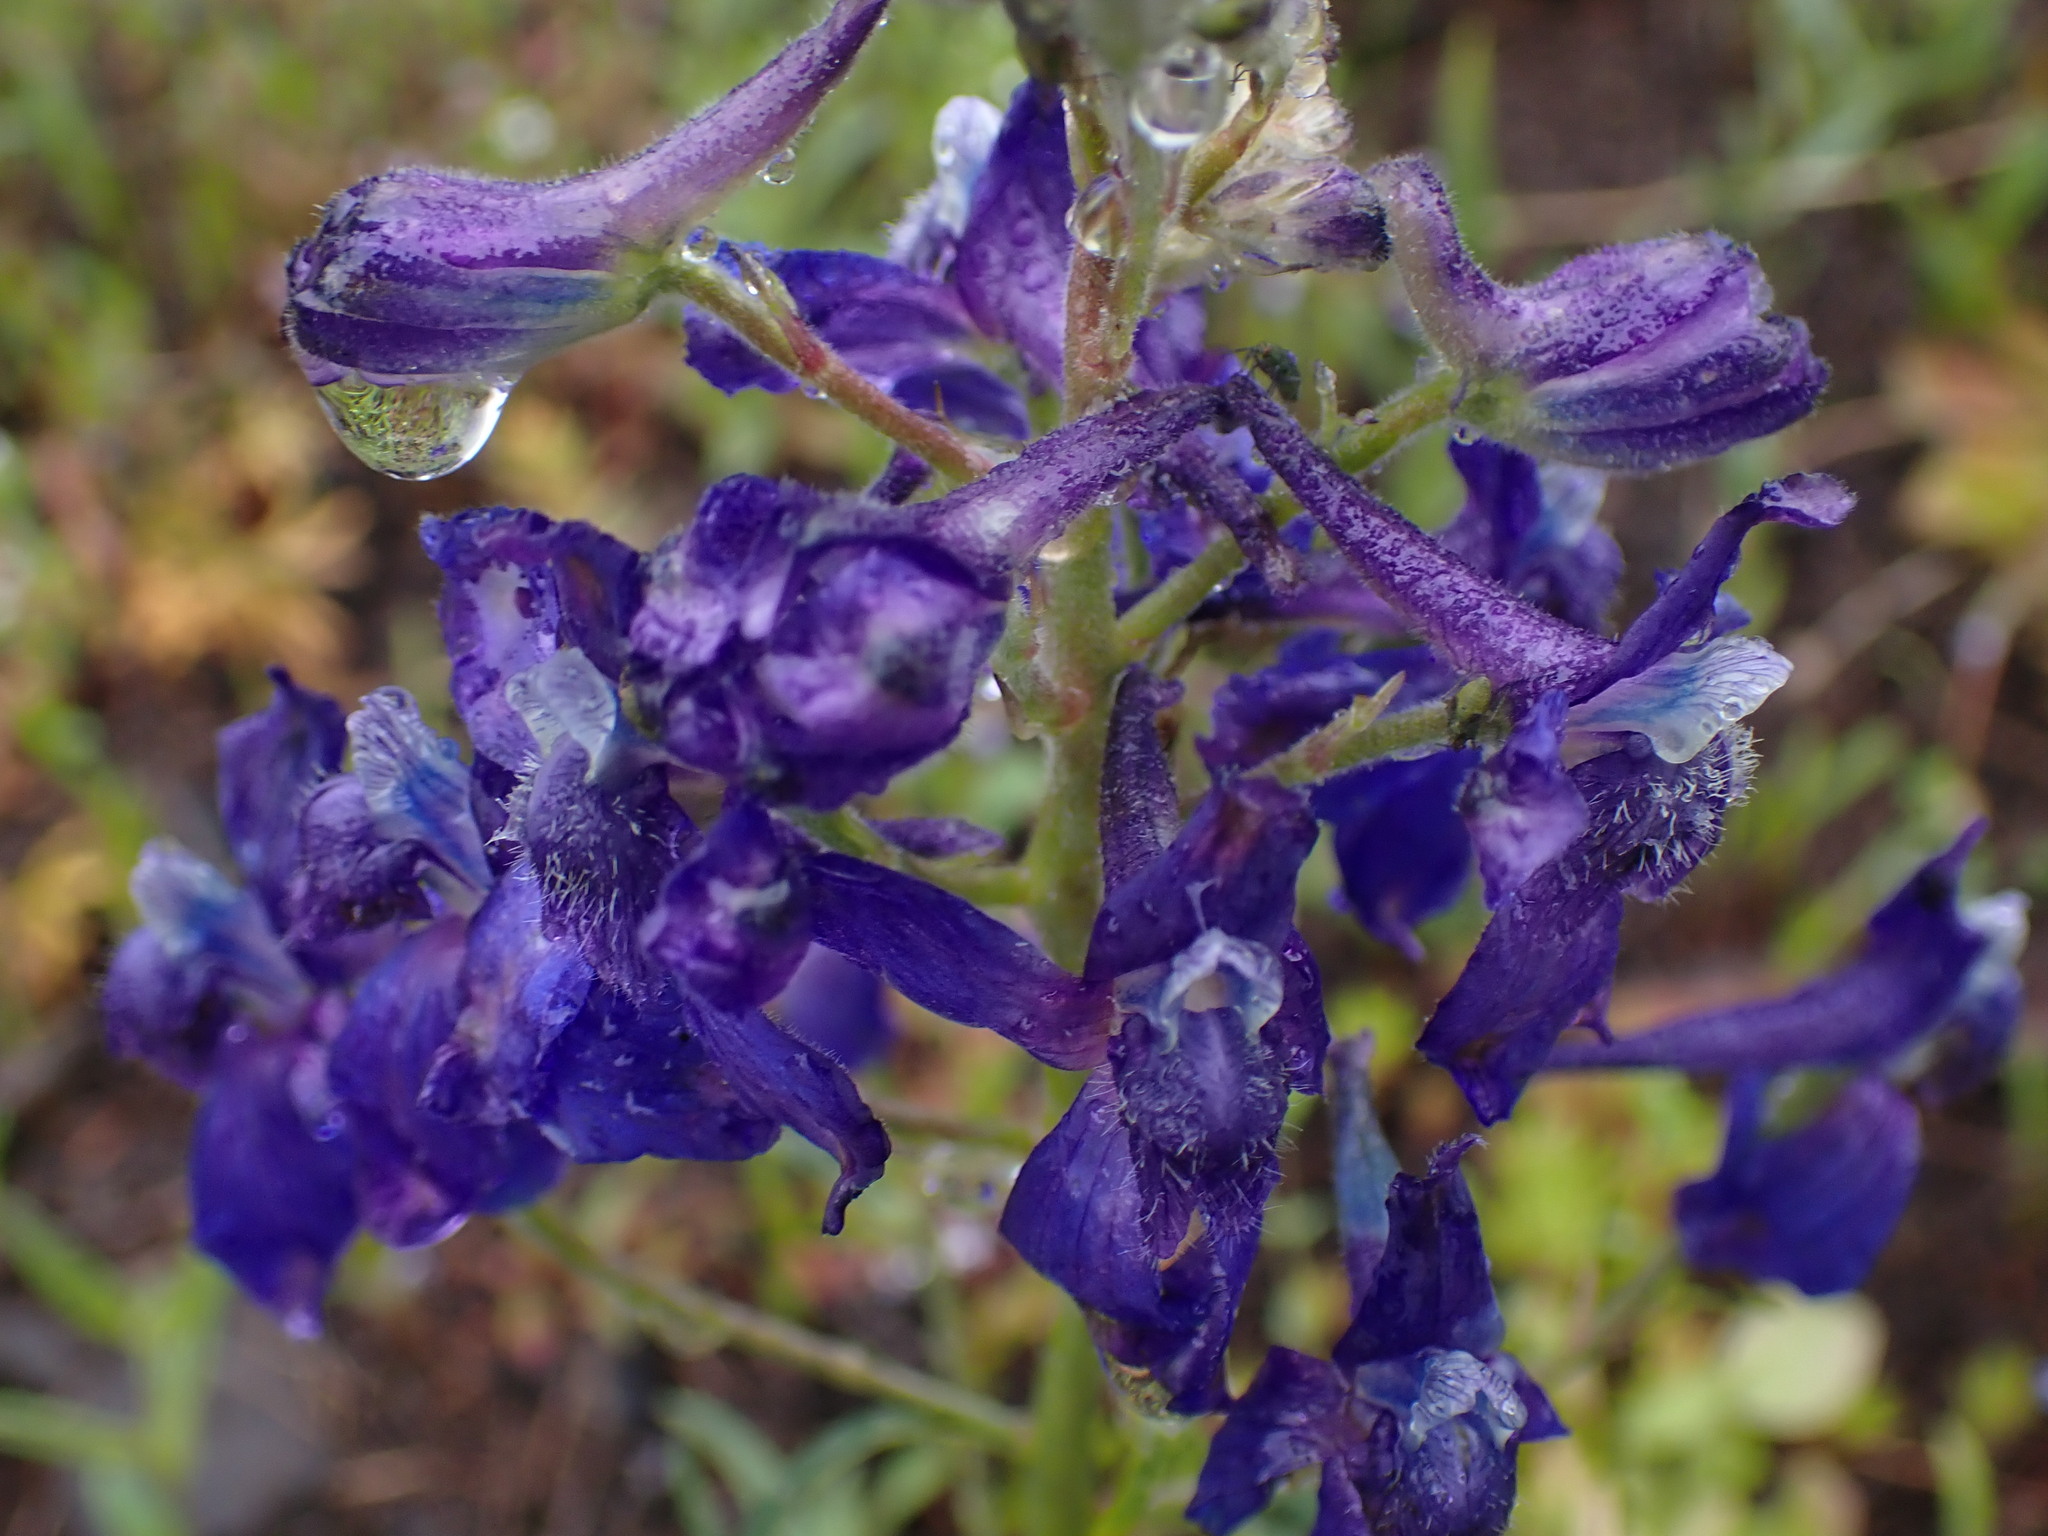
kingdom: Plantae
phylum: Tracheophyta
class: Magnoliopsida
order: Ranunculales
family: Ranunculaceae
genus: Delphinium
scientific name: Delphinium nuttallianum
